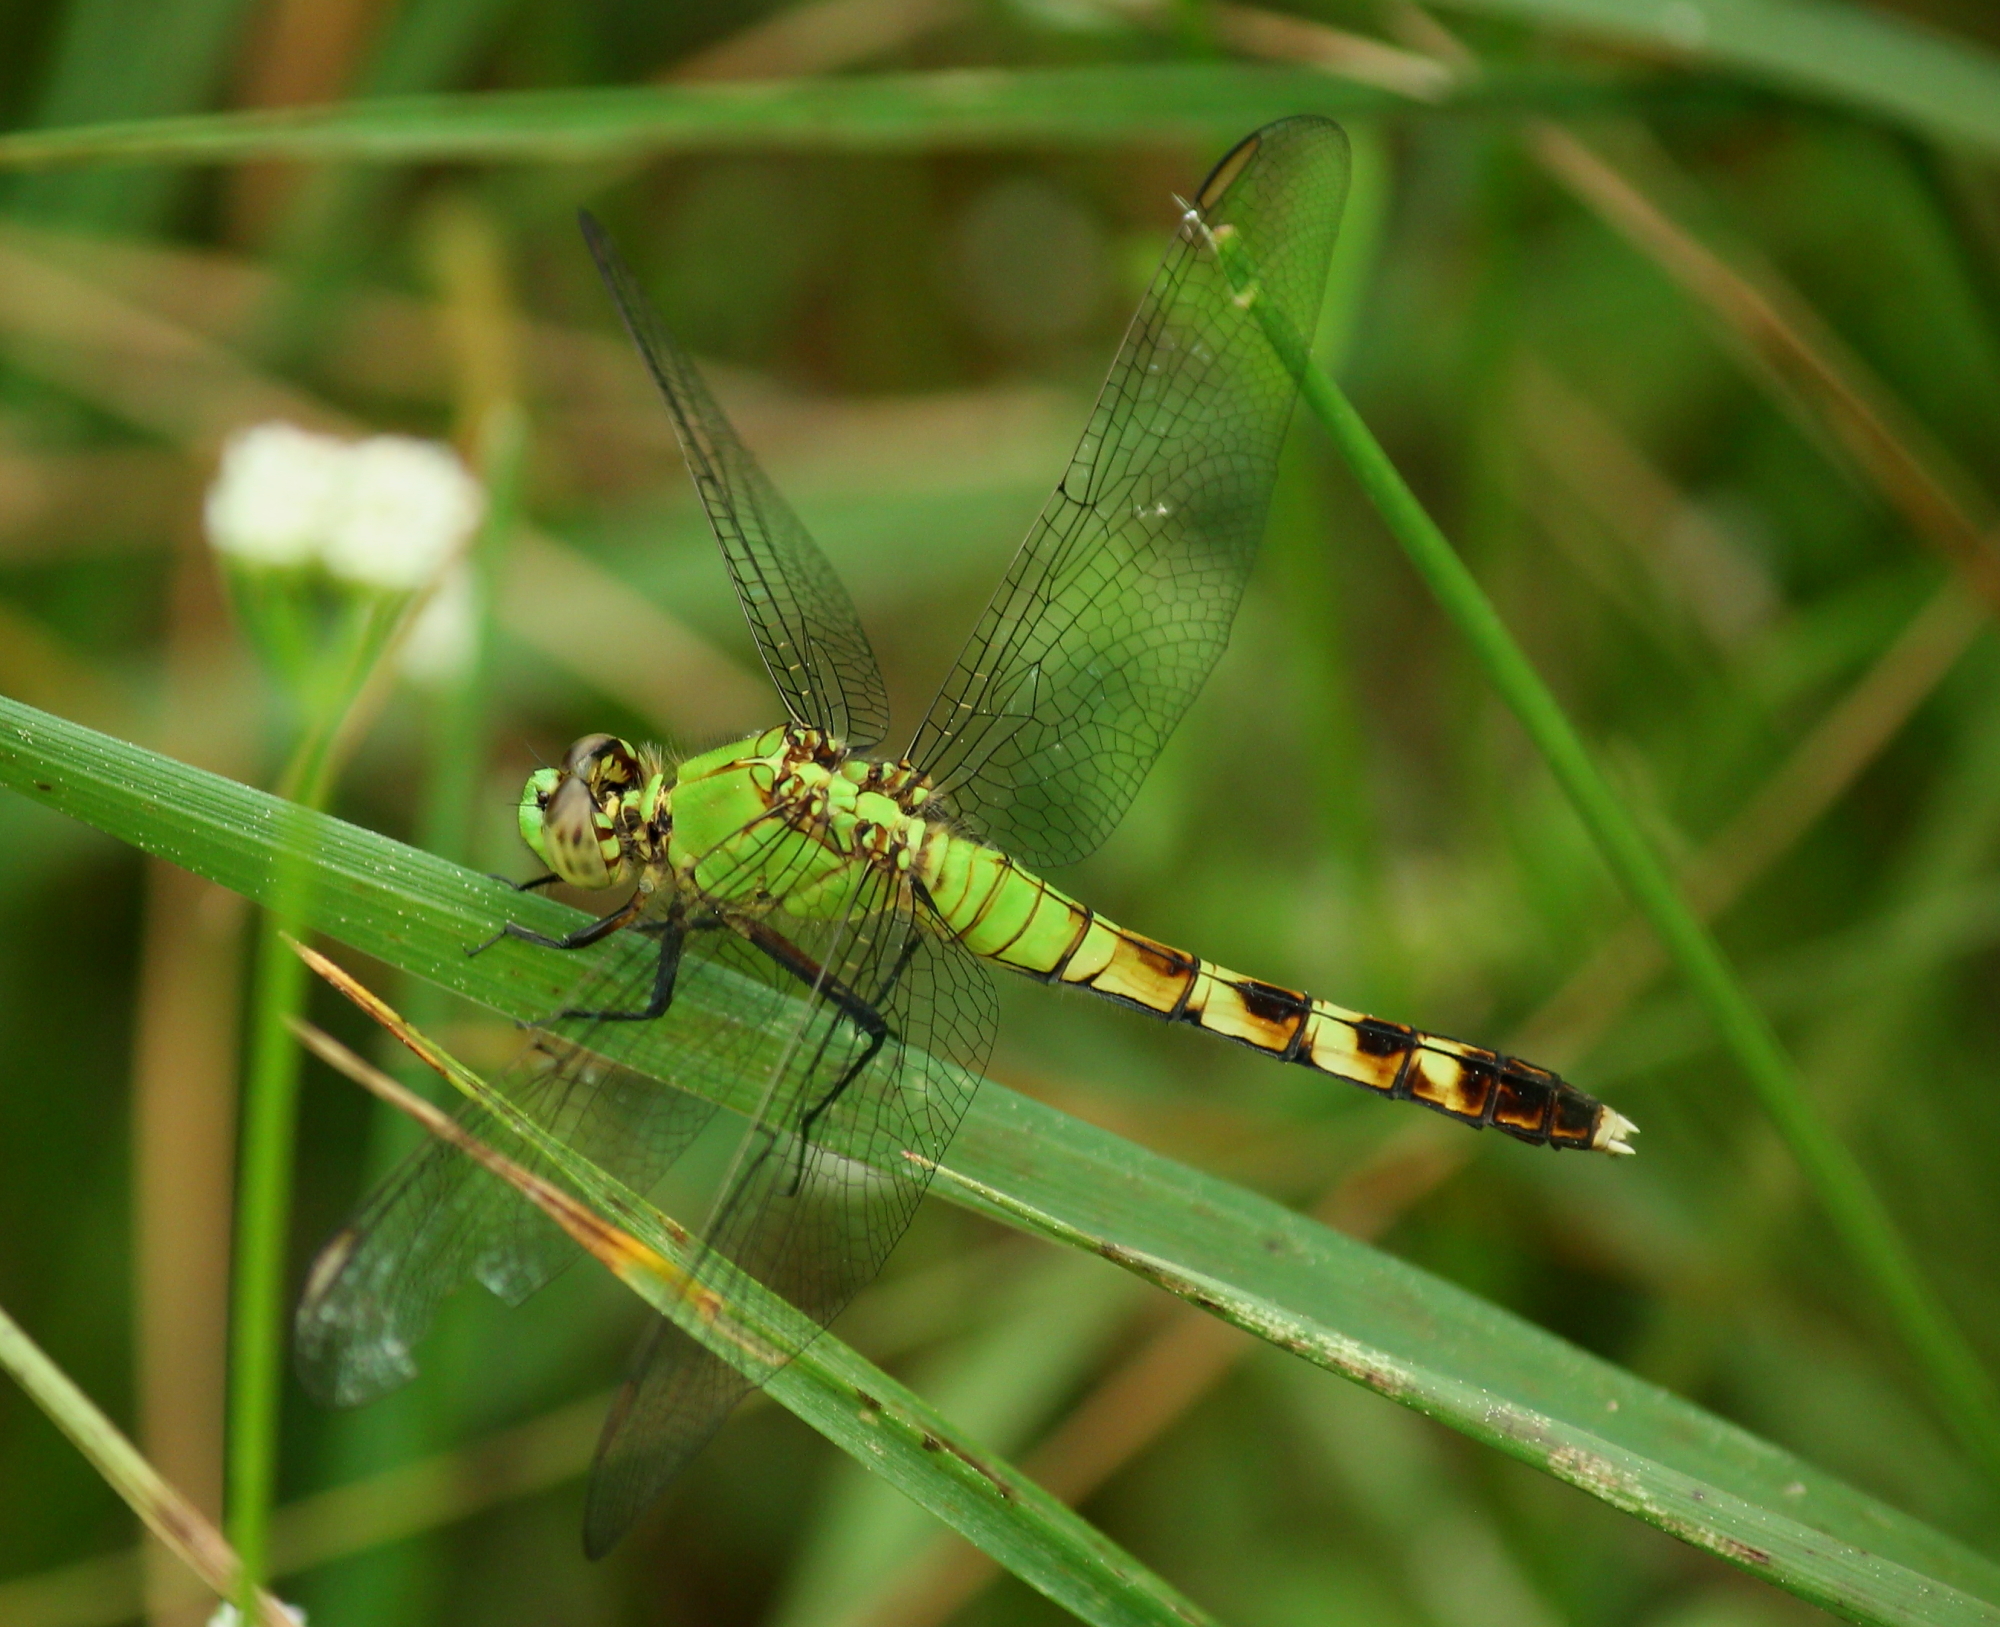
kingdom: Animalia
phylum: Arthropoda
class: Insecta
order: Odonata
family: Libellulidae
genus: Erythemis
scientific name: Erythemis simplicicollis
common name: Eastern pondhawk
